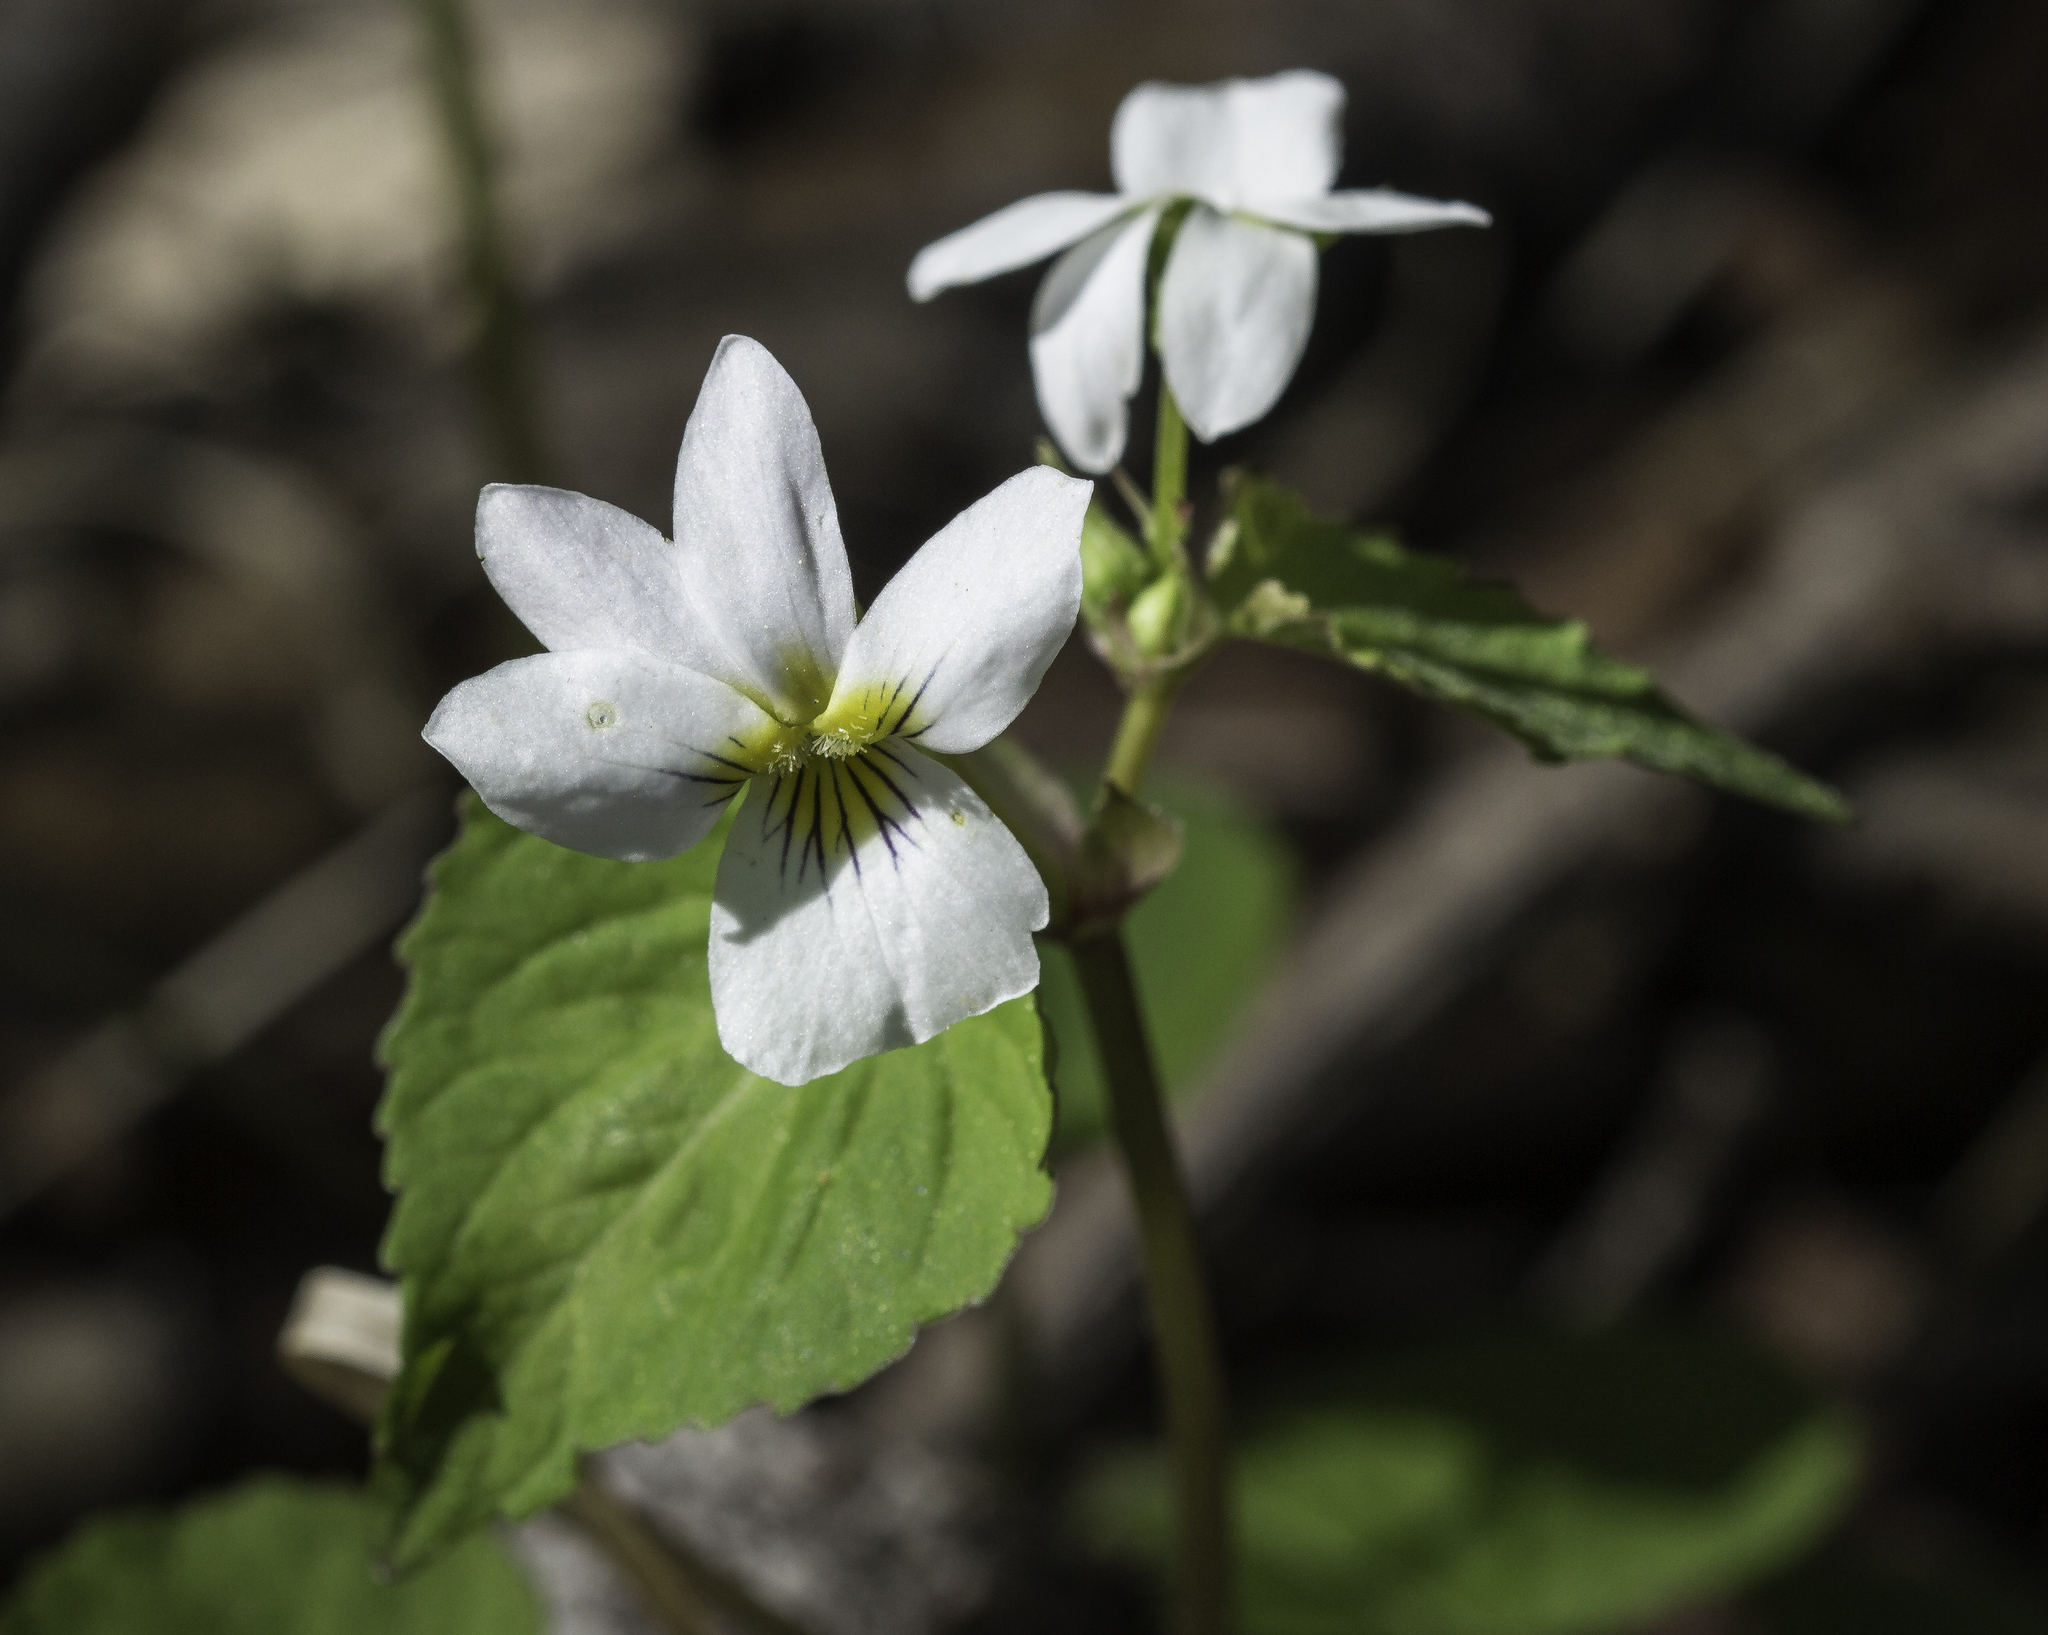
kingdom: Plantae
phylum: Tracheophyta
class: Magnoliopsida
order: Malpighiales
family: Violaceae
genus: Viola
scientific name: Viola canadensis
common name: Canada violet
